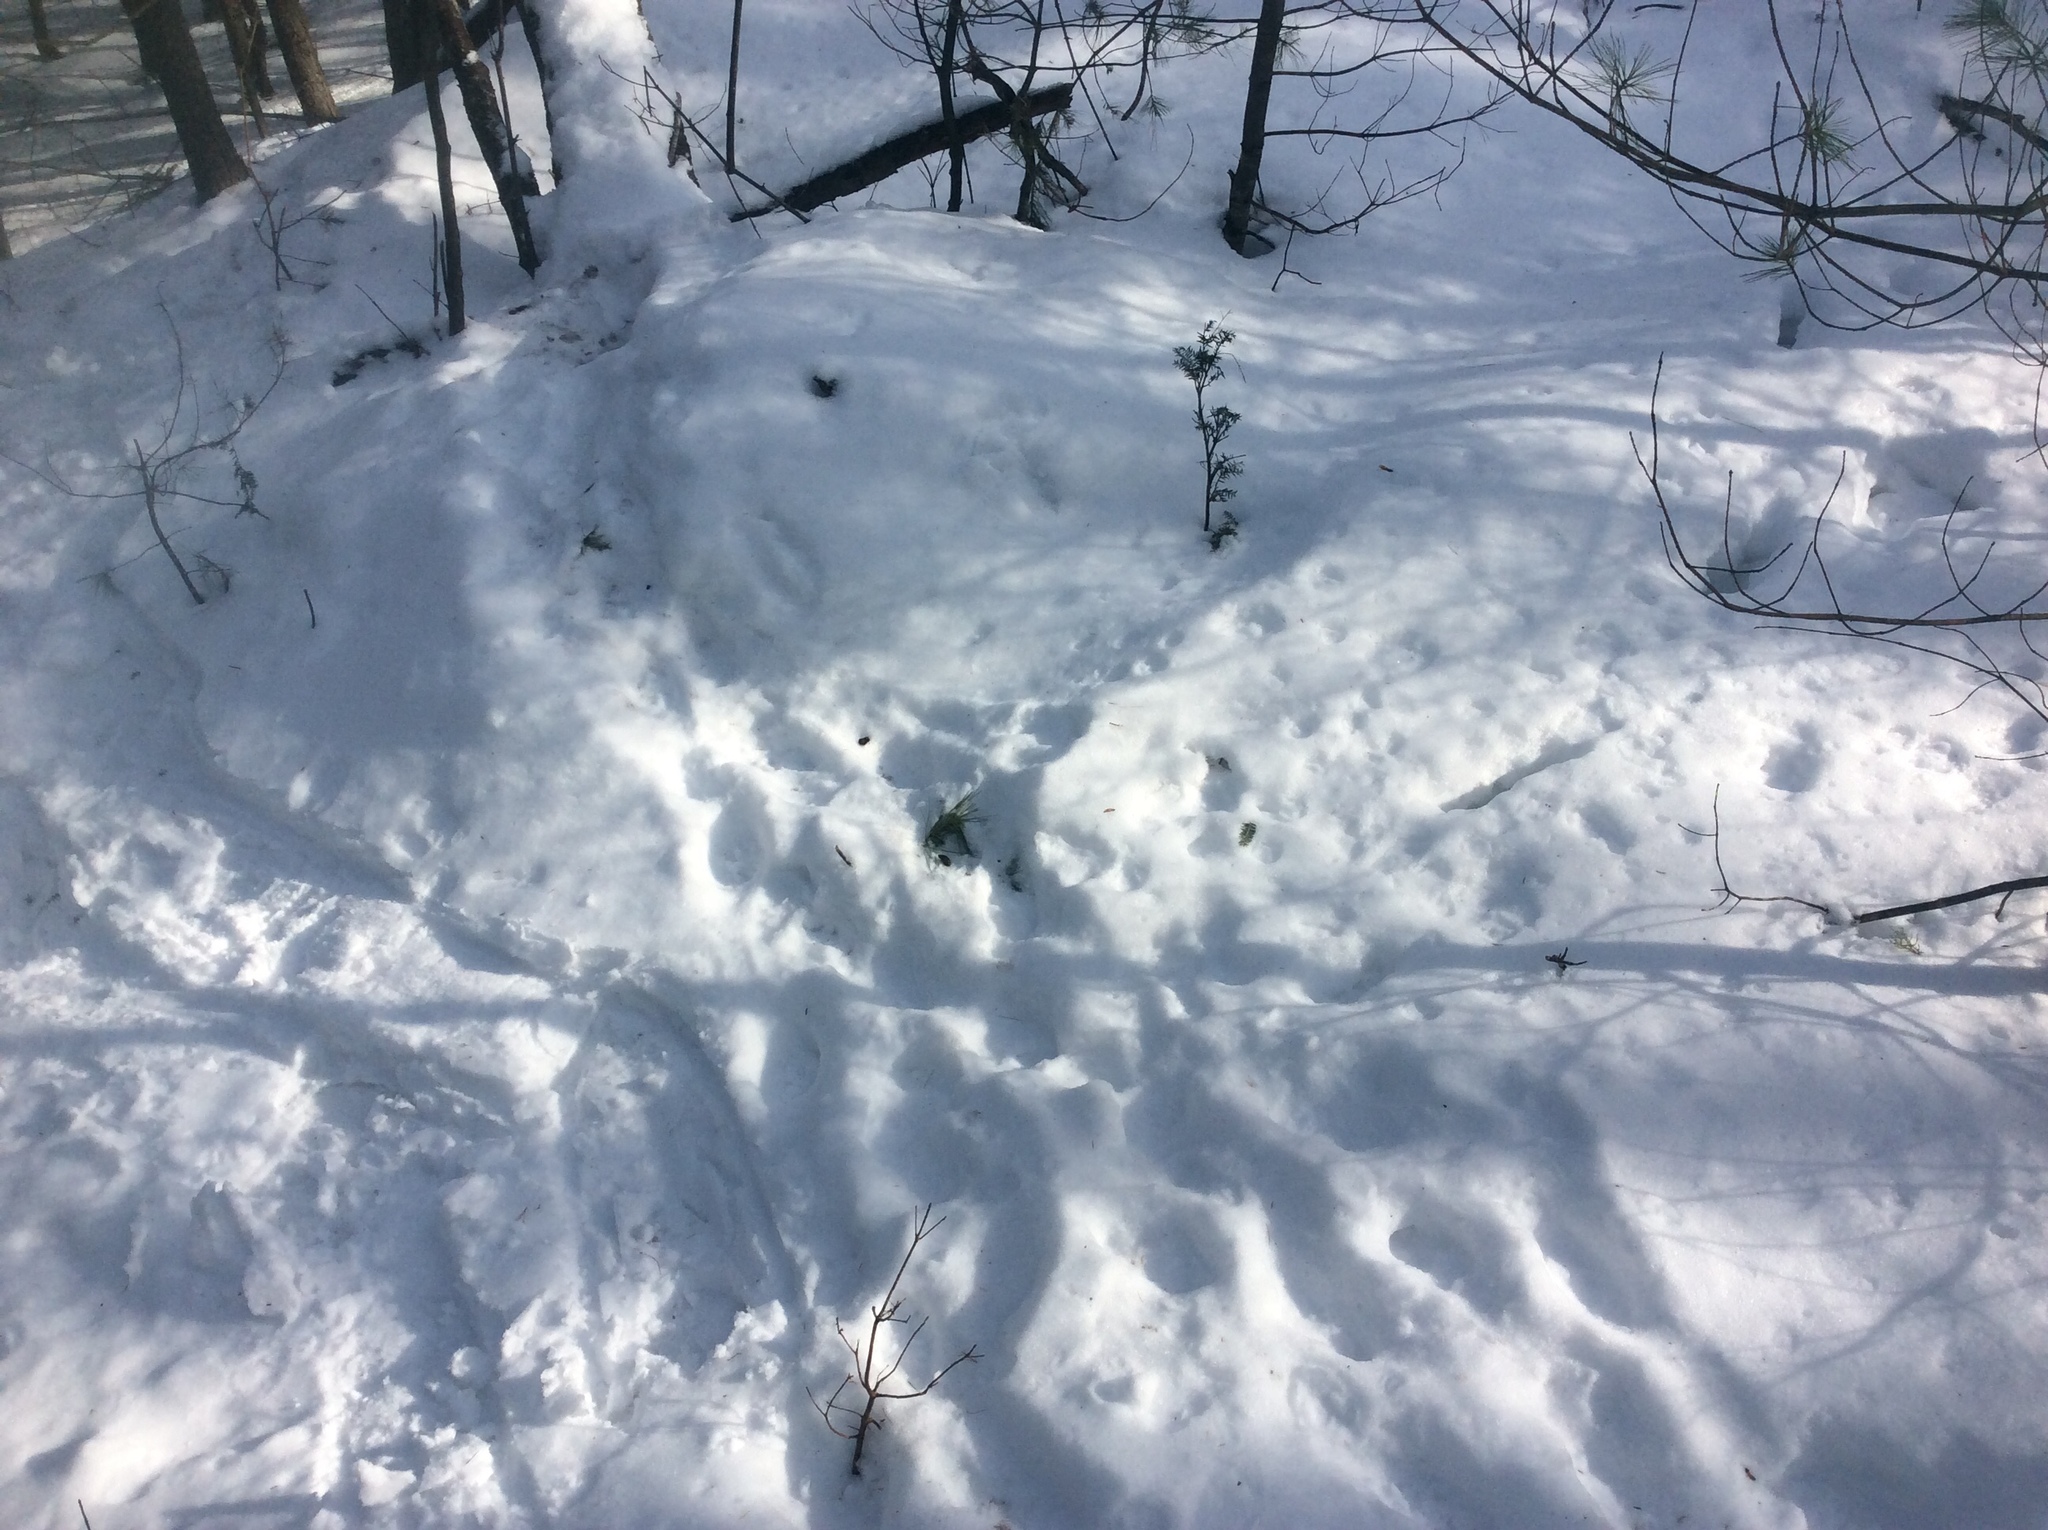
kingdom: Animalia
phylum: Chordata
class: Mammalia
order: Rodentia
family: Erethizontidae
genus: Erethizon
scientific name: Erethizon dorsatus
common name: North american porcupine
